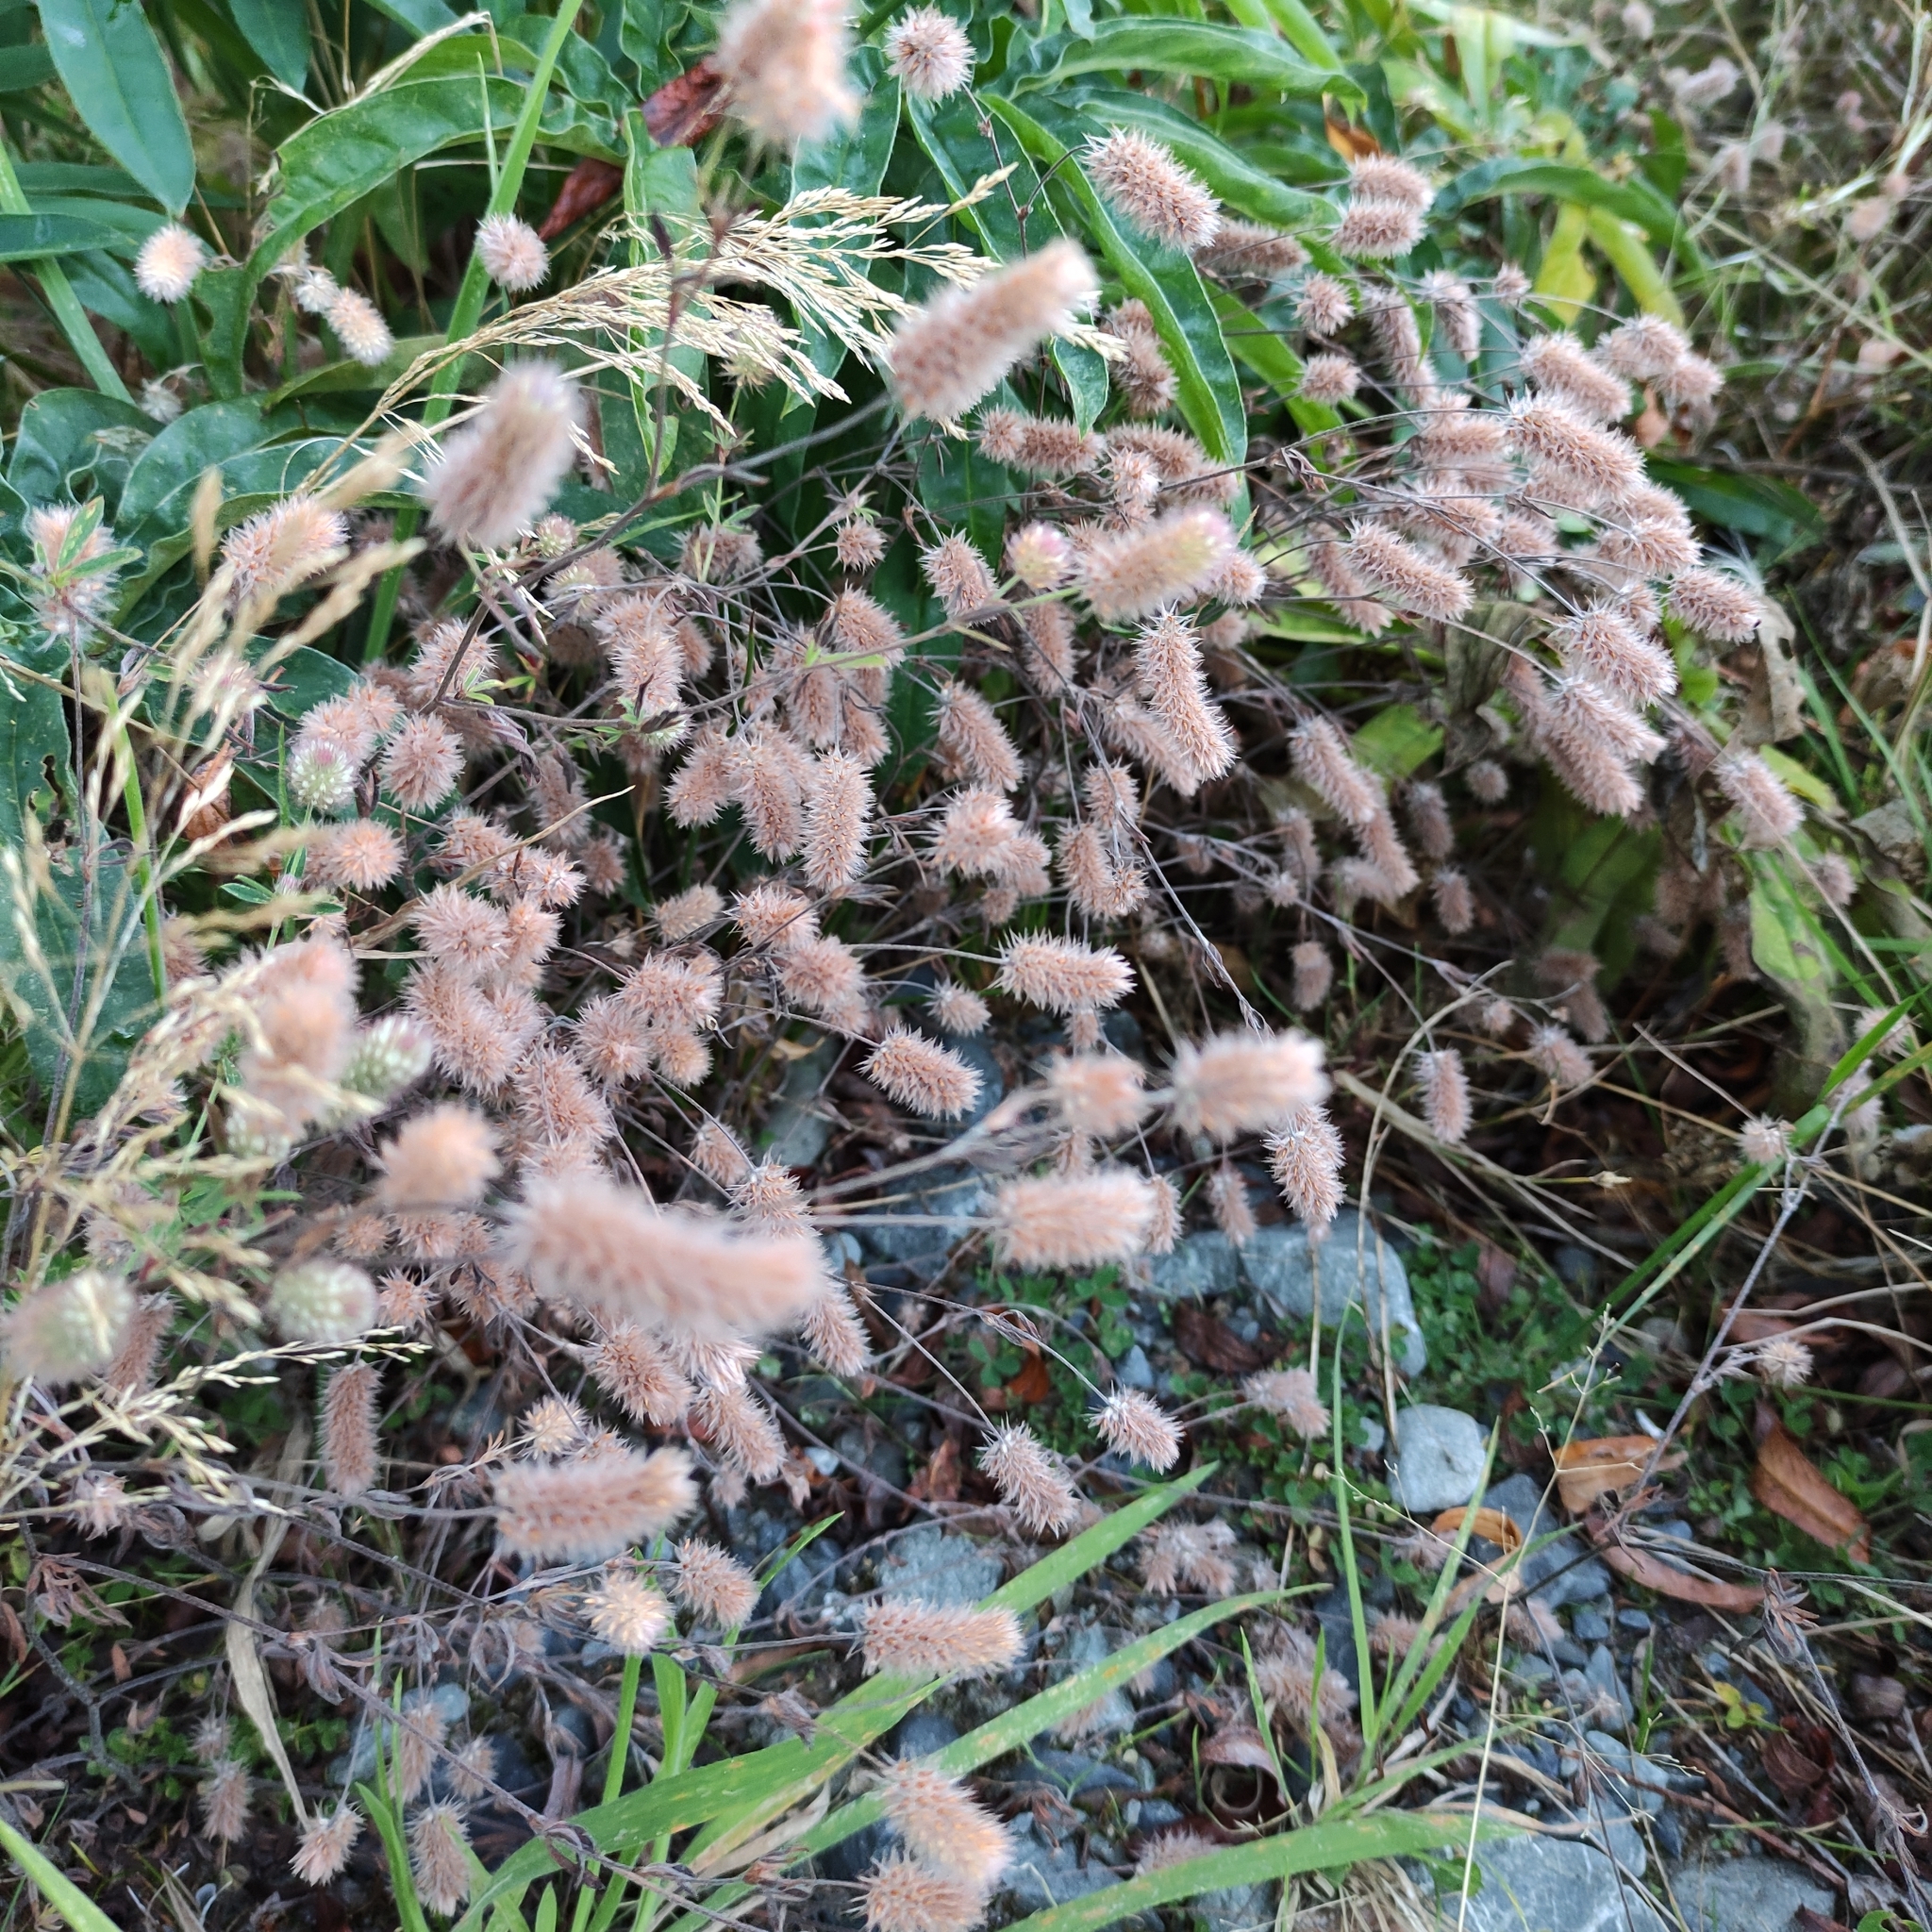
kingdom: Plantae
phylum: Tracheophyta
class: Magnoliopsida
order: Fabales
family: Fabaceae
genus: Trifolium
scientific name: Trifolium arvense
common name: Hare's-foot clover
